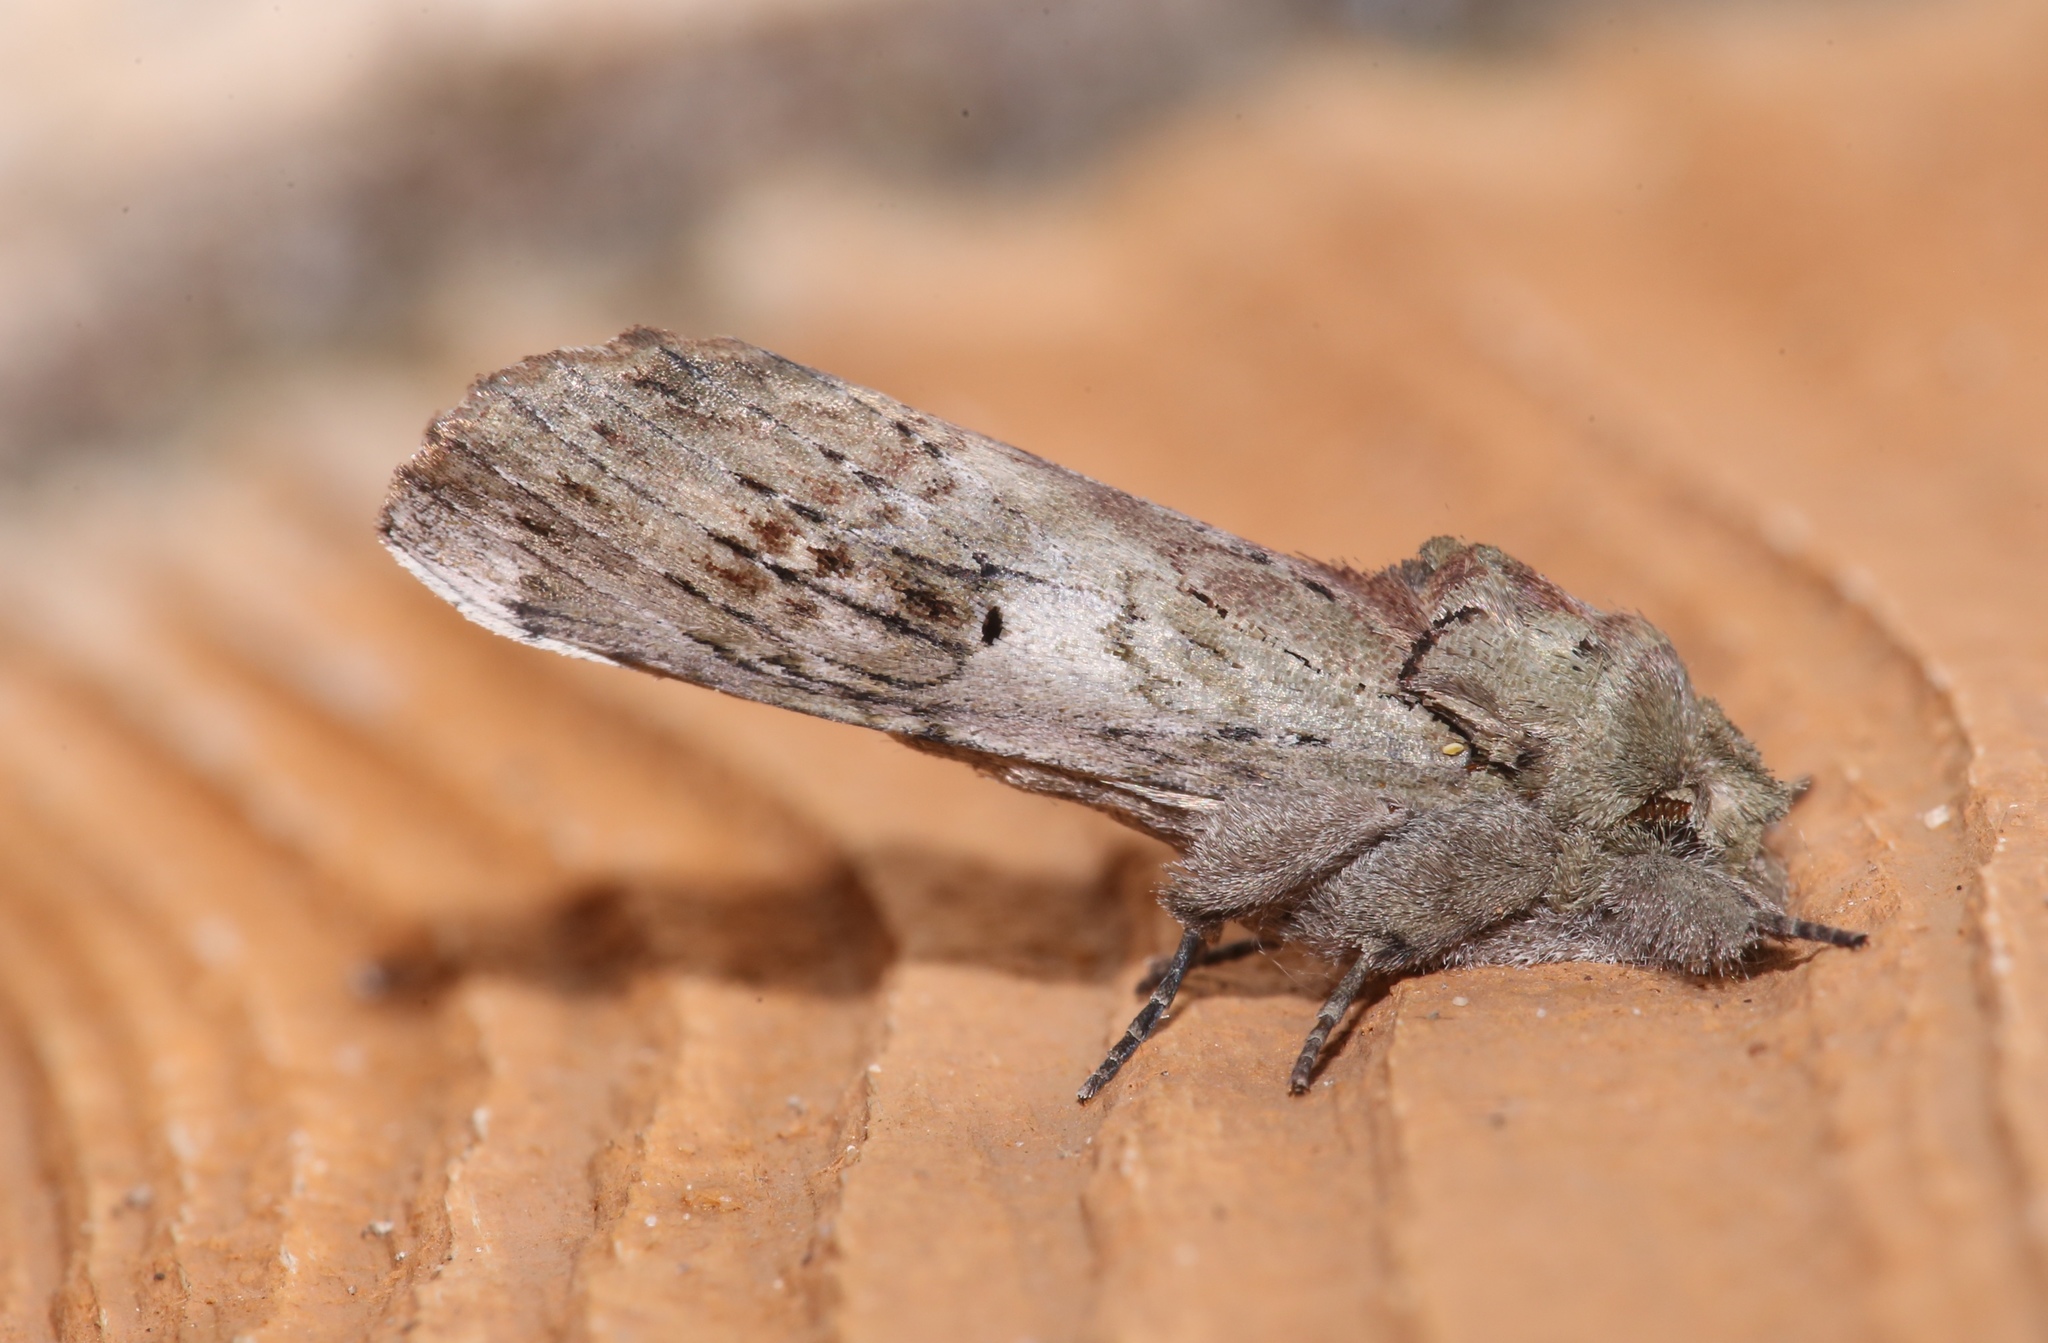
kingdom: Animalia
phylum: Arthropoda
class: Insecta
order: Lepidoptera
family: Notodontidae
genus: Schizura
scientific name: Schizura
